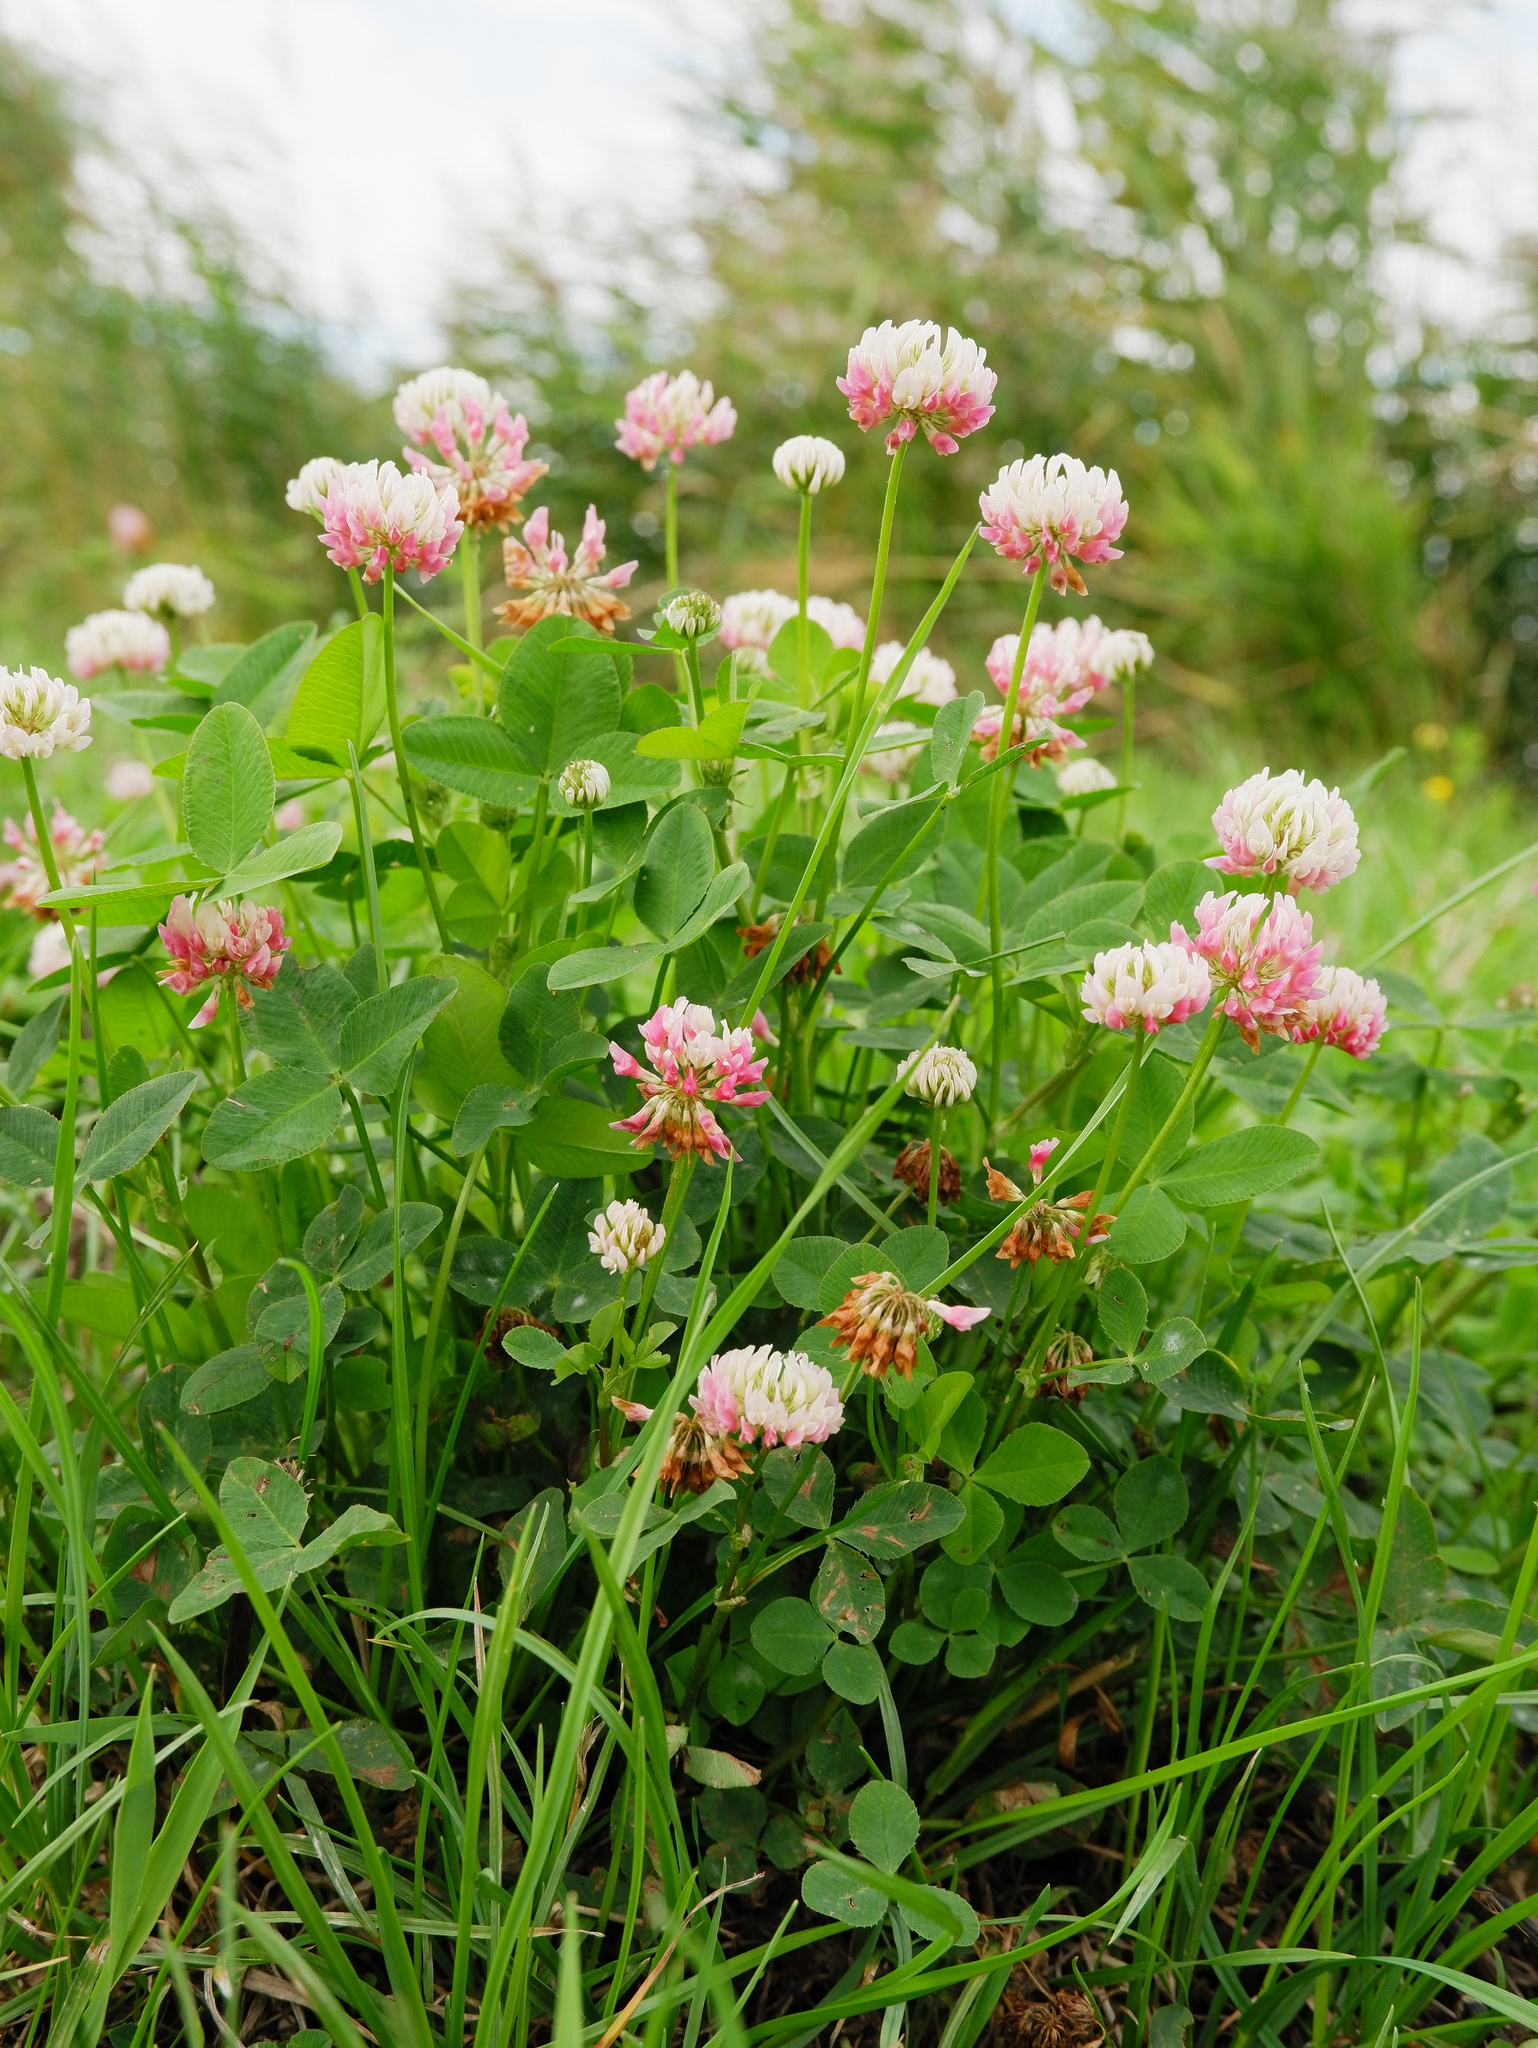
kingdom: Plantae
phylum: Tracheophyta
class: Magnoliopsida
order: Fabales
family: Fabaceae
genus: Trifolium
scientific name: Trifolium hybridum
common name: Alsike clover
